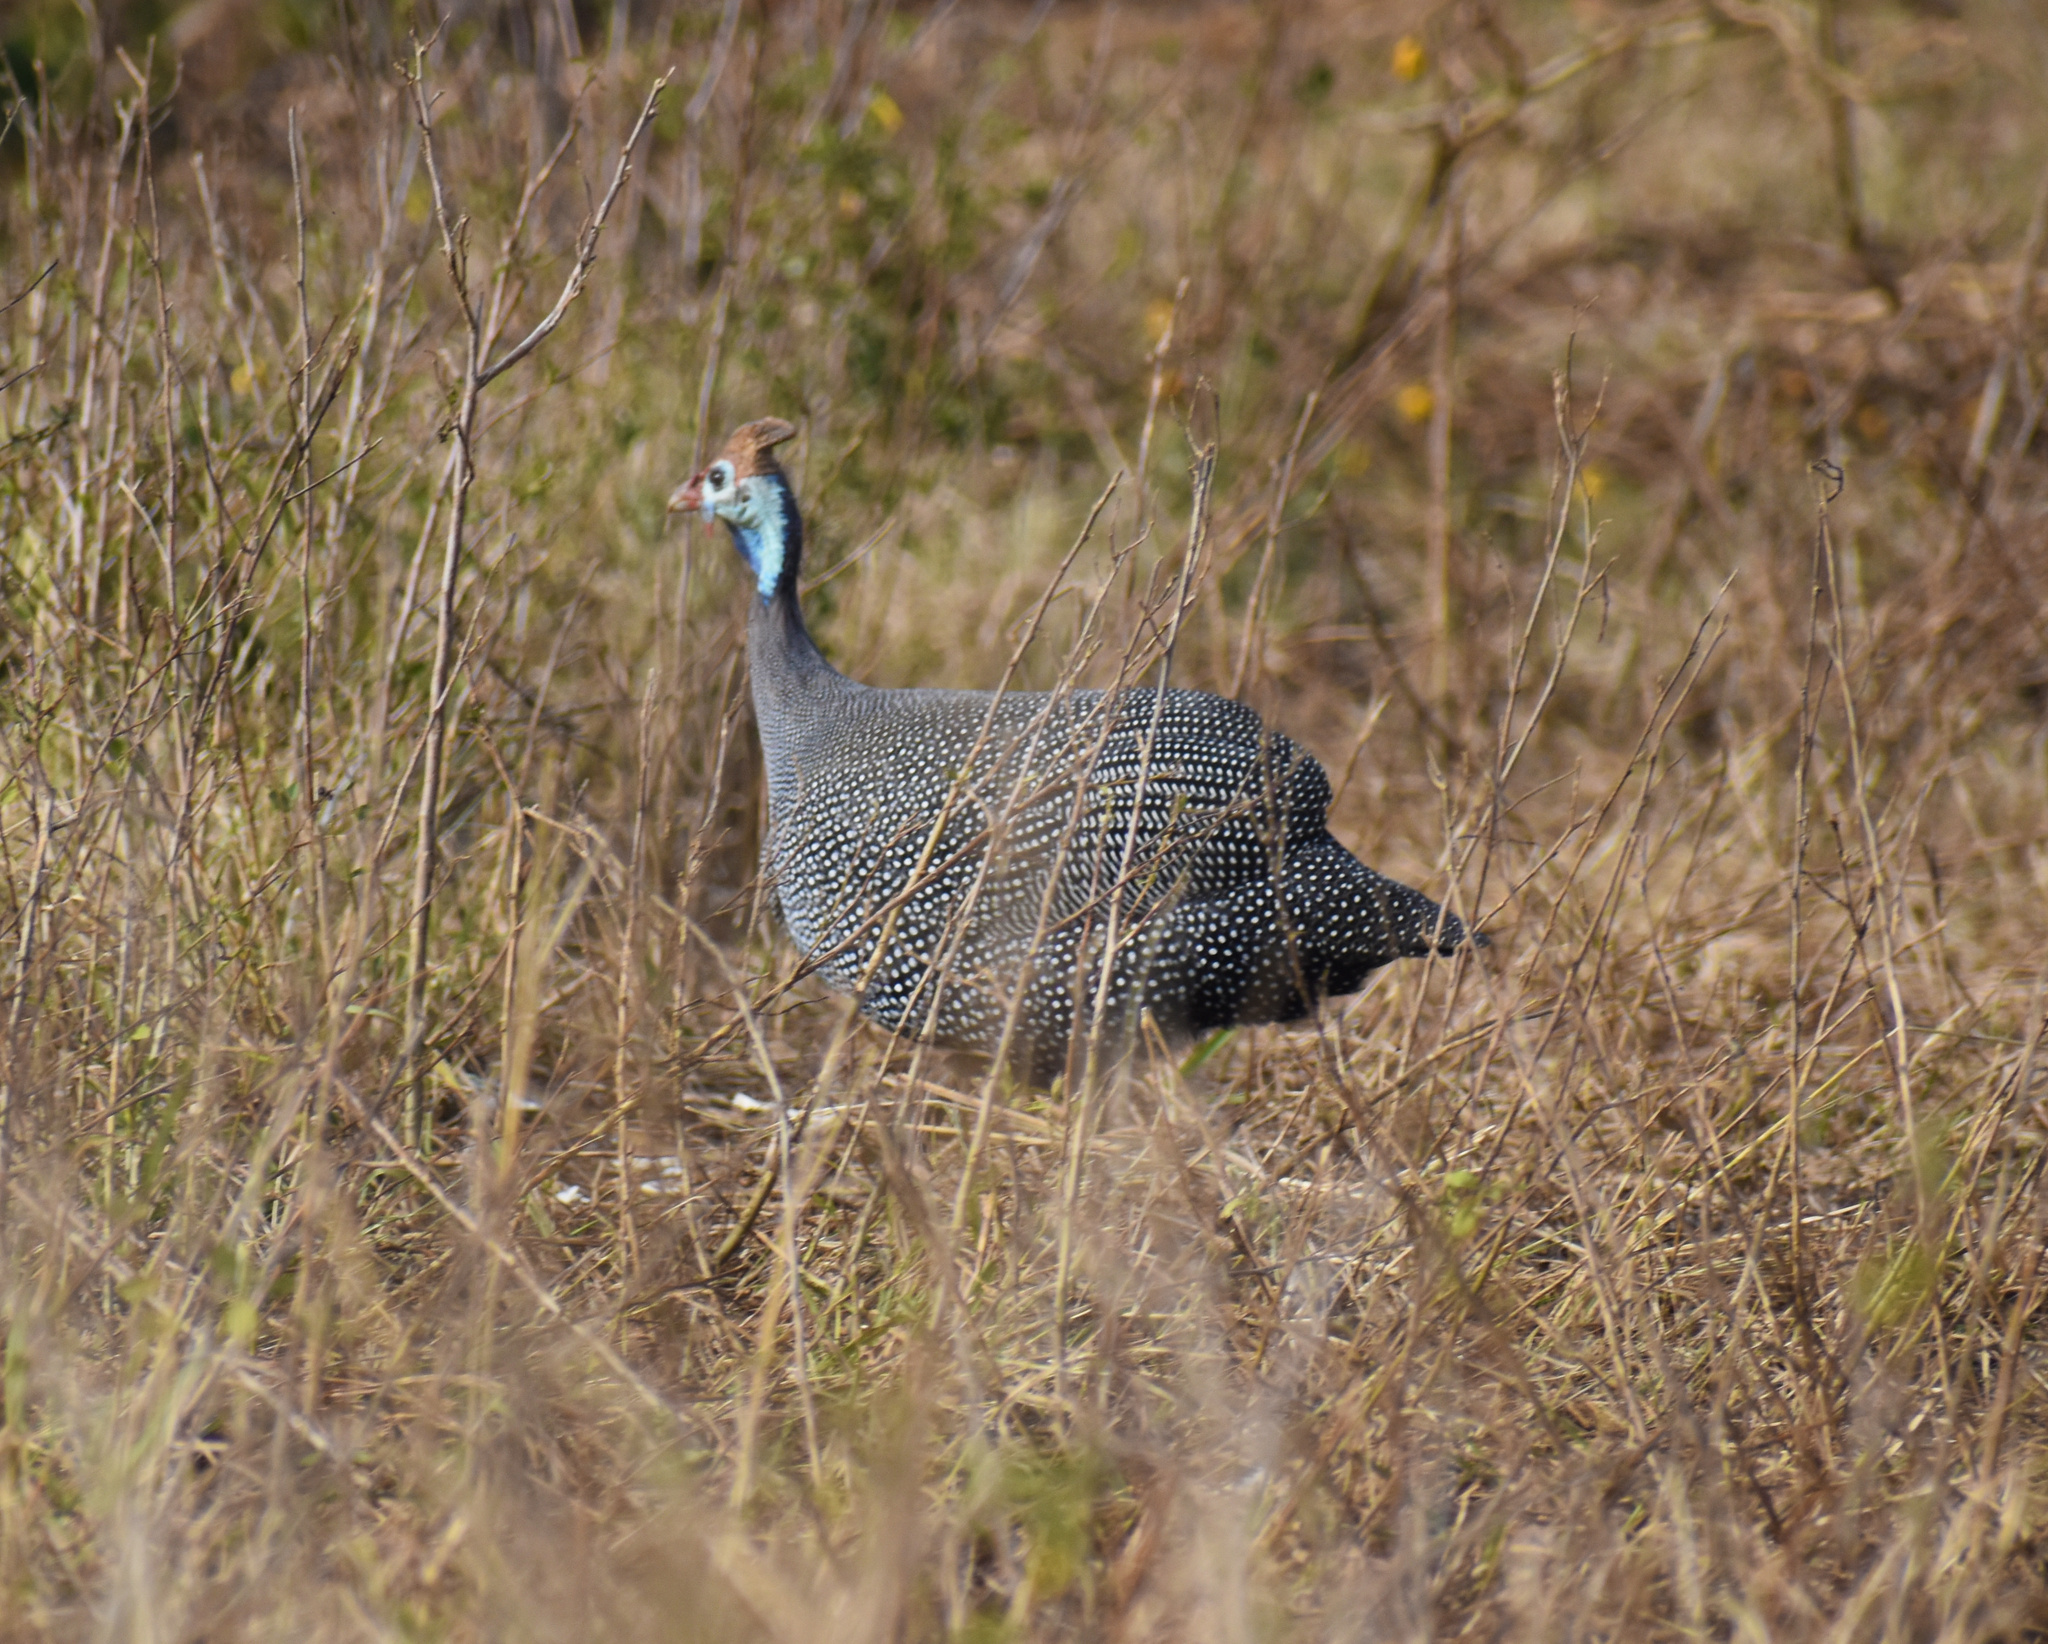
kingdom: Animalia
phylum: Chordata
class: Aves
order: Galliformes
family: Numididae
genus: Numida
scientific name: Numida meleagris
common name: Helmeted guineafowl
